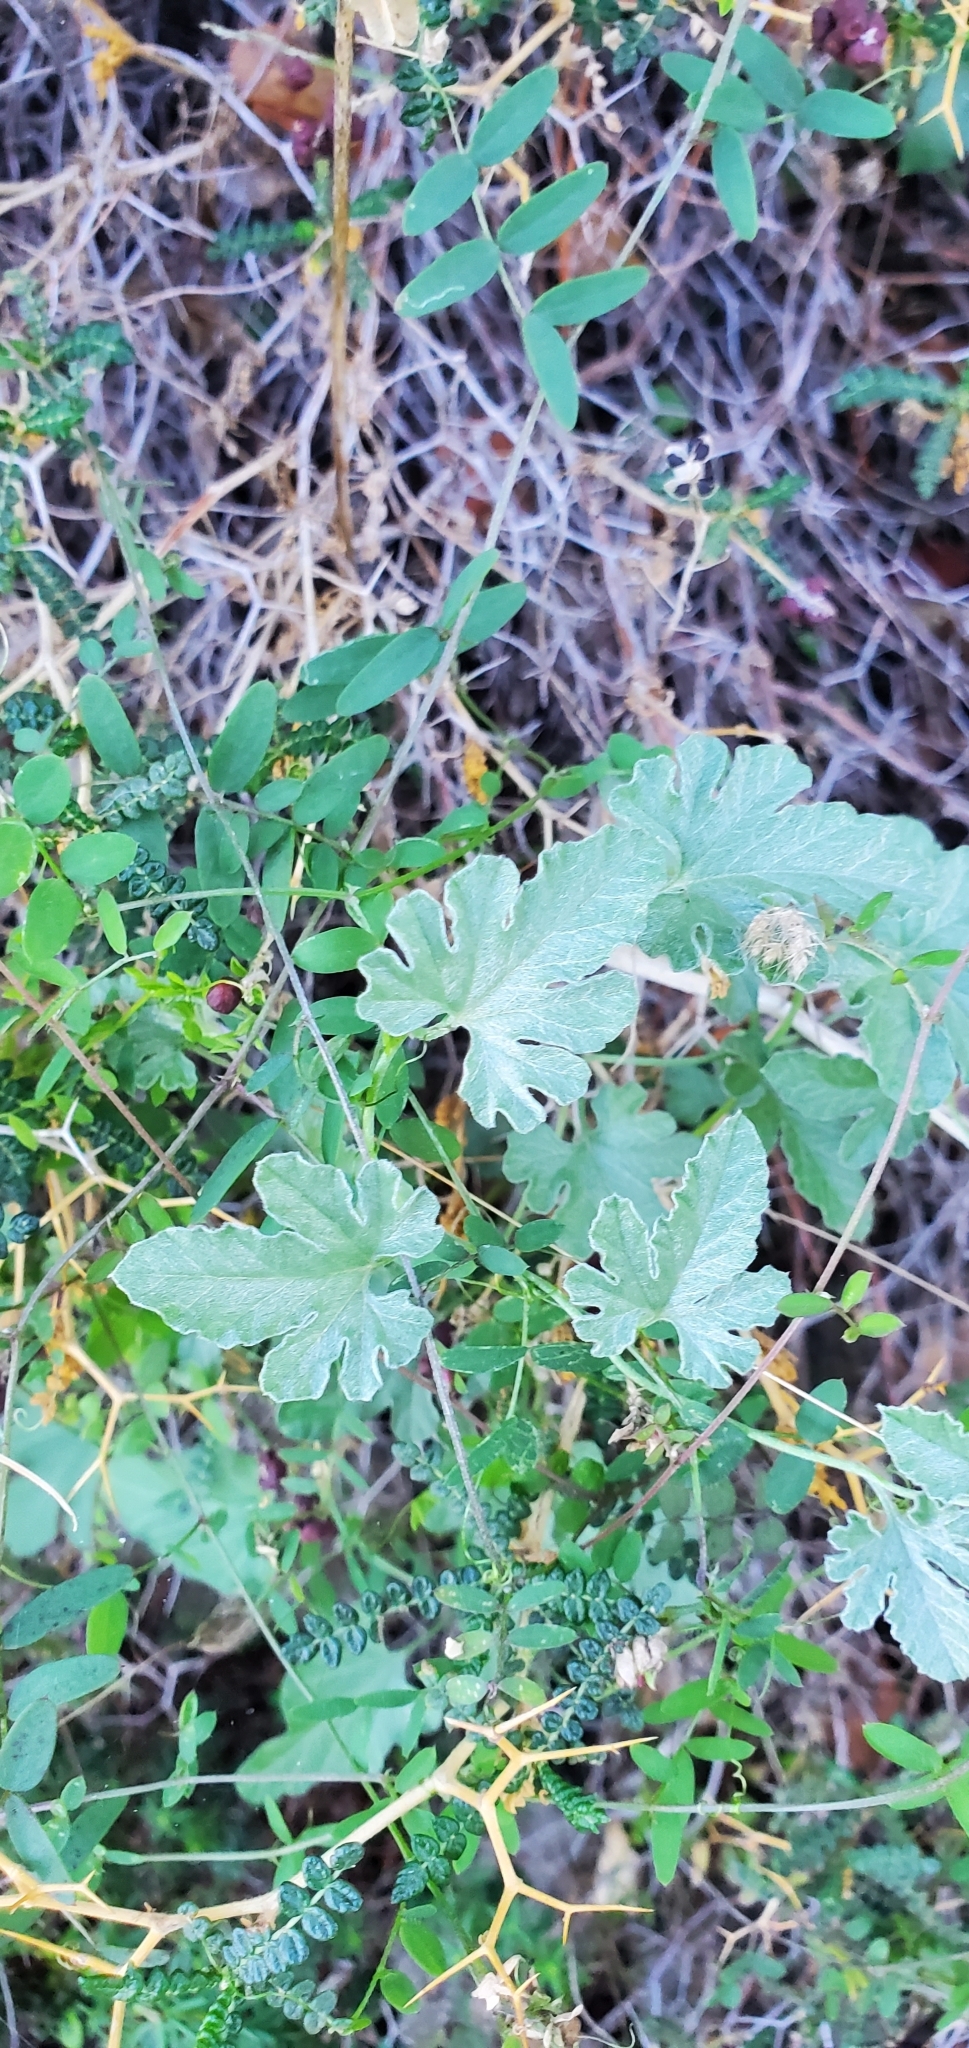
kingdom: Plantae
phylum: Tracheophyta
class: Magnoliopsida
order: Solanales
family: Convolvulaceae
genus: Convolvulus
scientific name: Convolvulus elegantissimus
